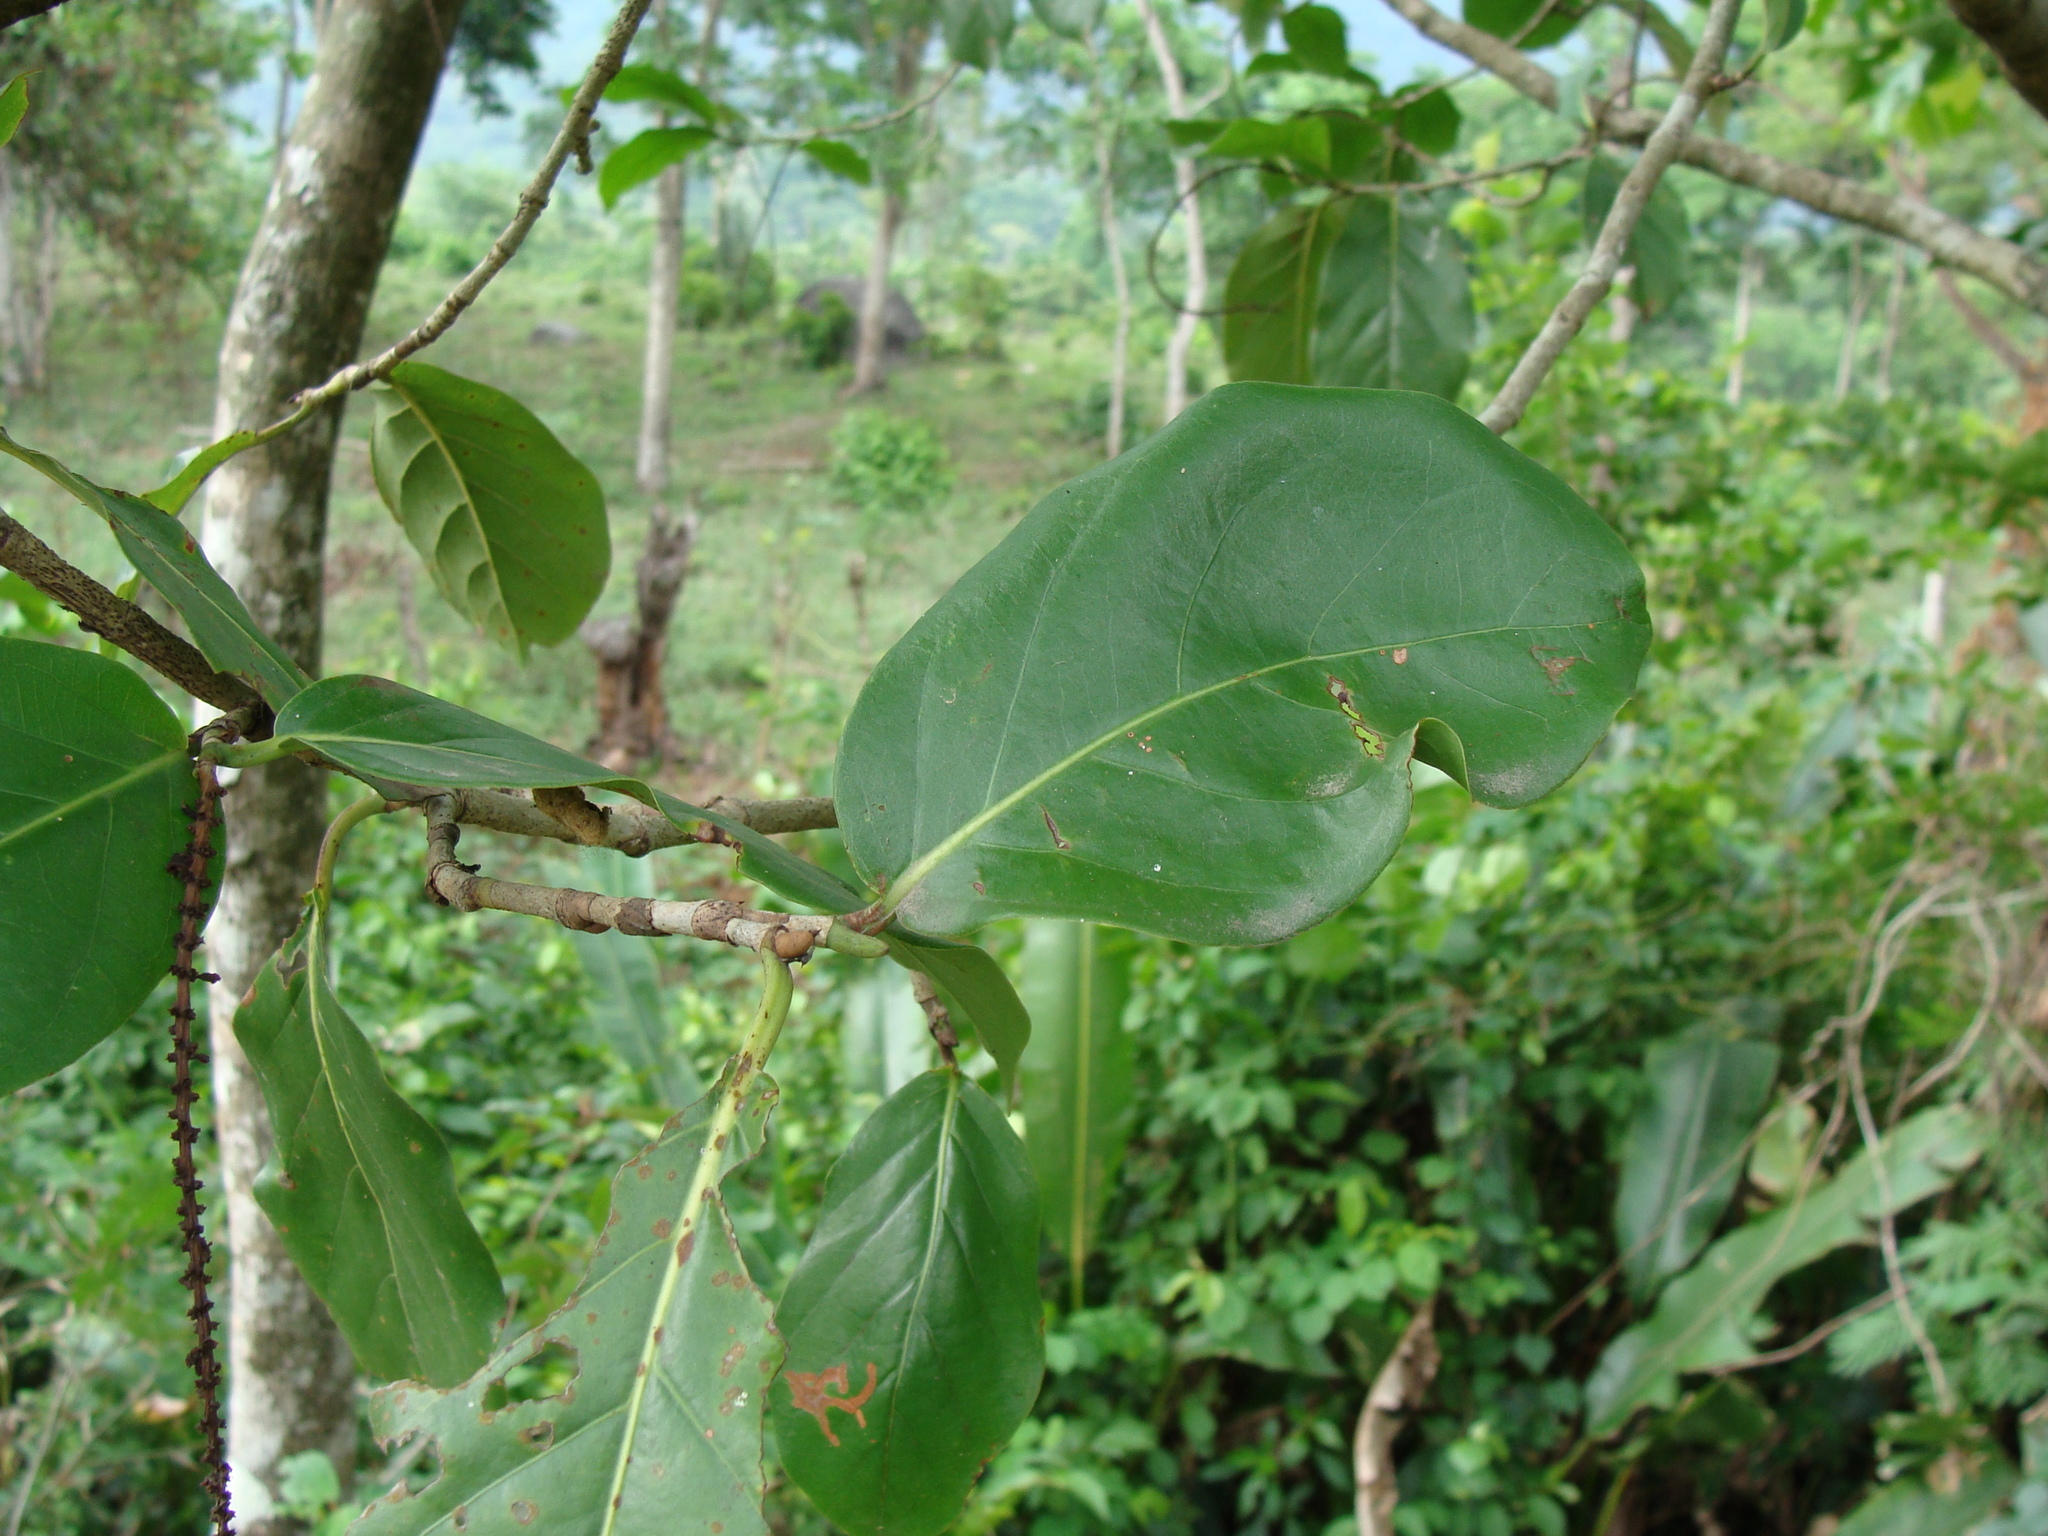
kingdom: Plantae
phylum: Tracheophyta
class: Magnoliopsida
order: Caryophyllales
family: Polygonaceae
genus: Coccoloba
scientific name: Coccoloba caracasana
